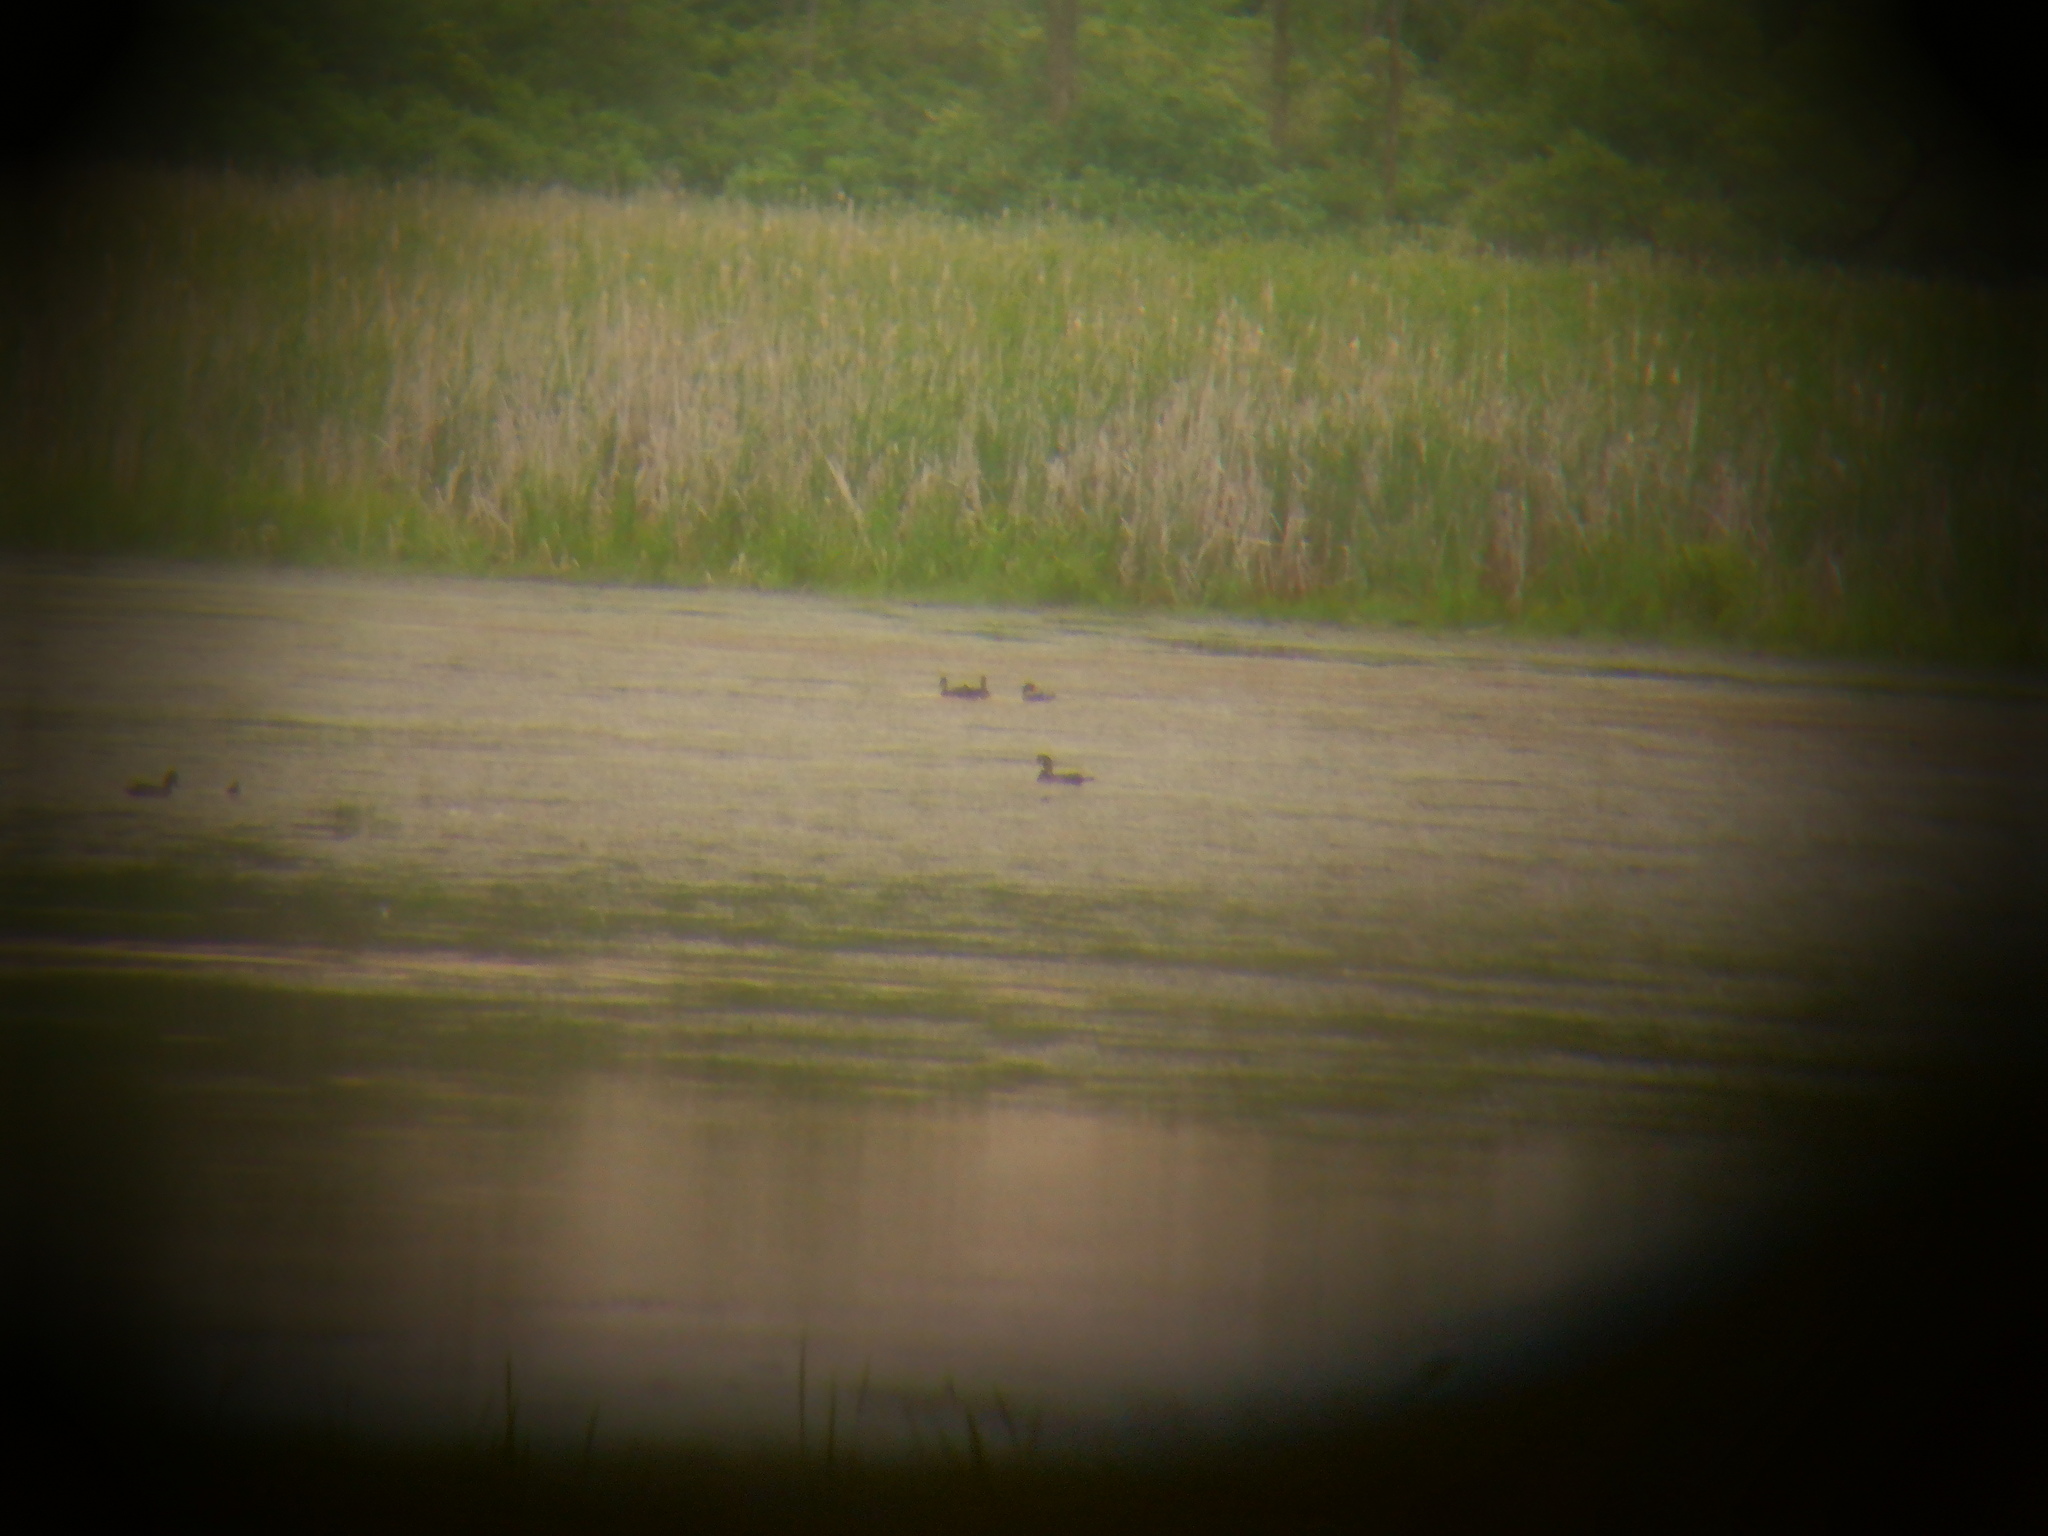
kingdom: Animalia
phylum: Chordata
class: Aves
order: Anseriformes
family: Anatidae
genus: Aix
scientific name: Aix sponsa
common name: Wood duck
